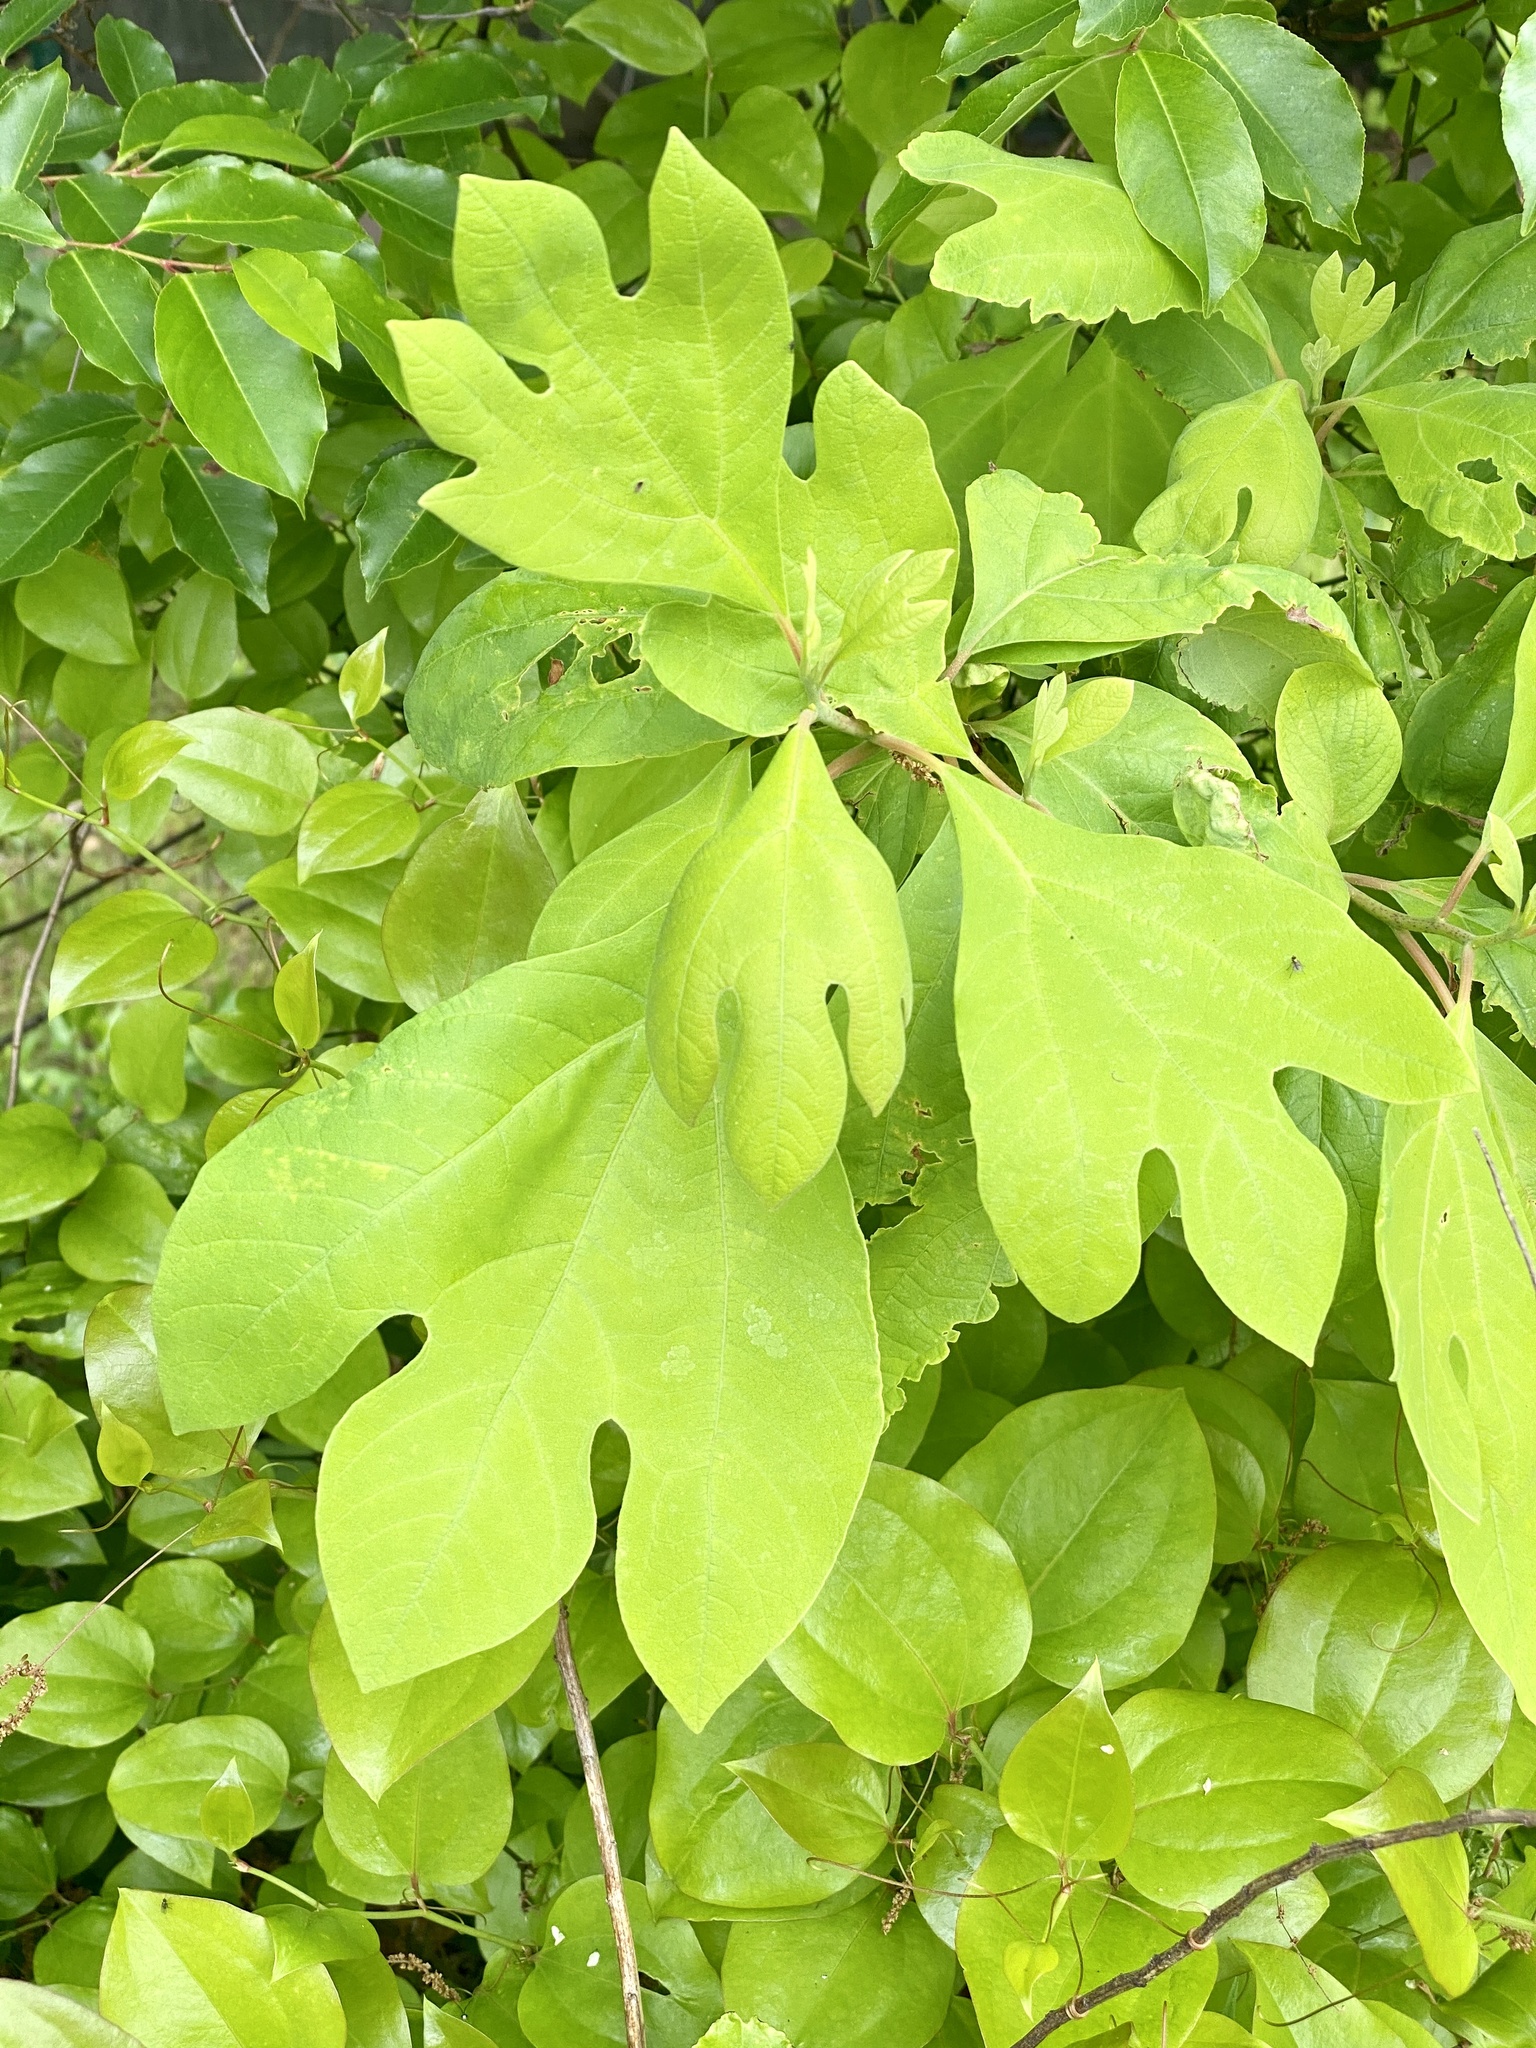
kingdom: Plantae
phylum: Tracheophyta
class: Magnoliopsida
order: Laurales
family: Lauraceae
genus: Sassafras
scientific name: Sassafras albidum
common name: Sassafras
